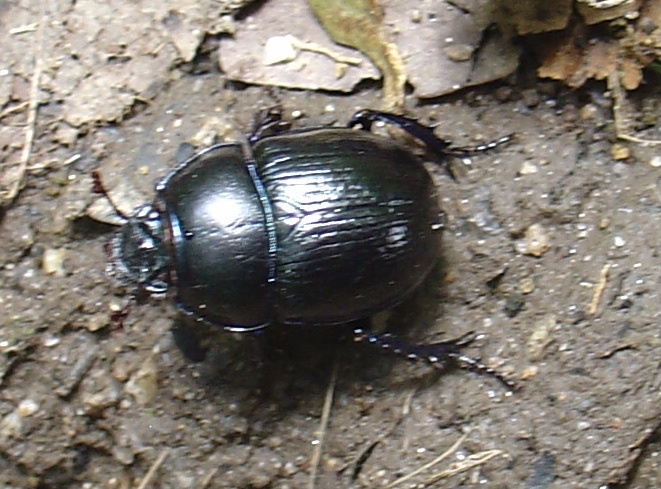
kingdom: Animalia
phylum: Arthropoda
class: Insecta
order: Coleoptera
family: Geotrupidae
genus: Anoplotrupes
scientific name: Anoplotrupes stercorosus
